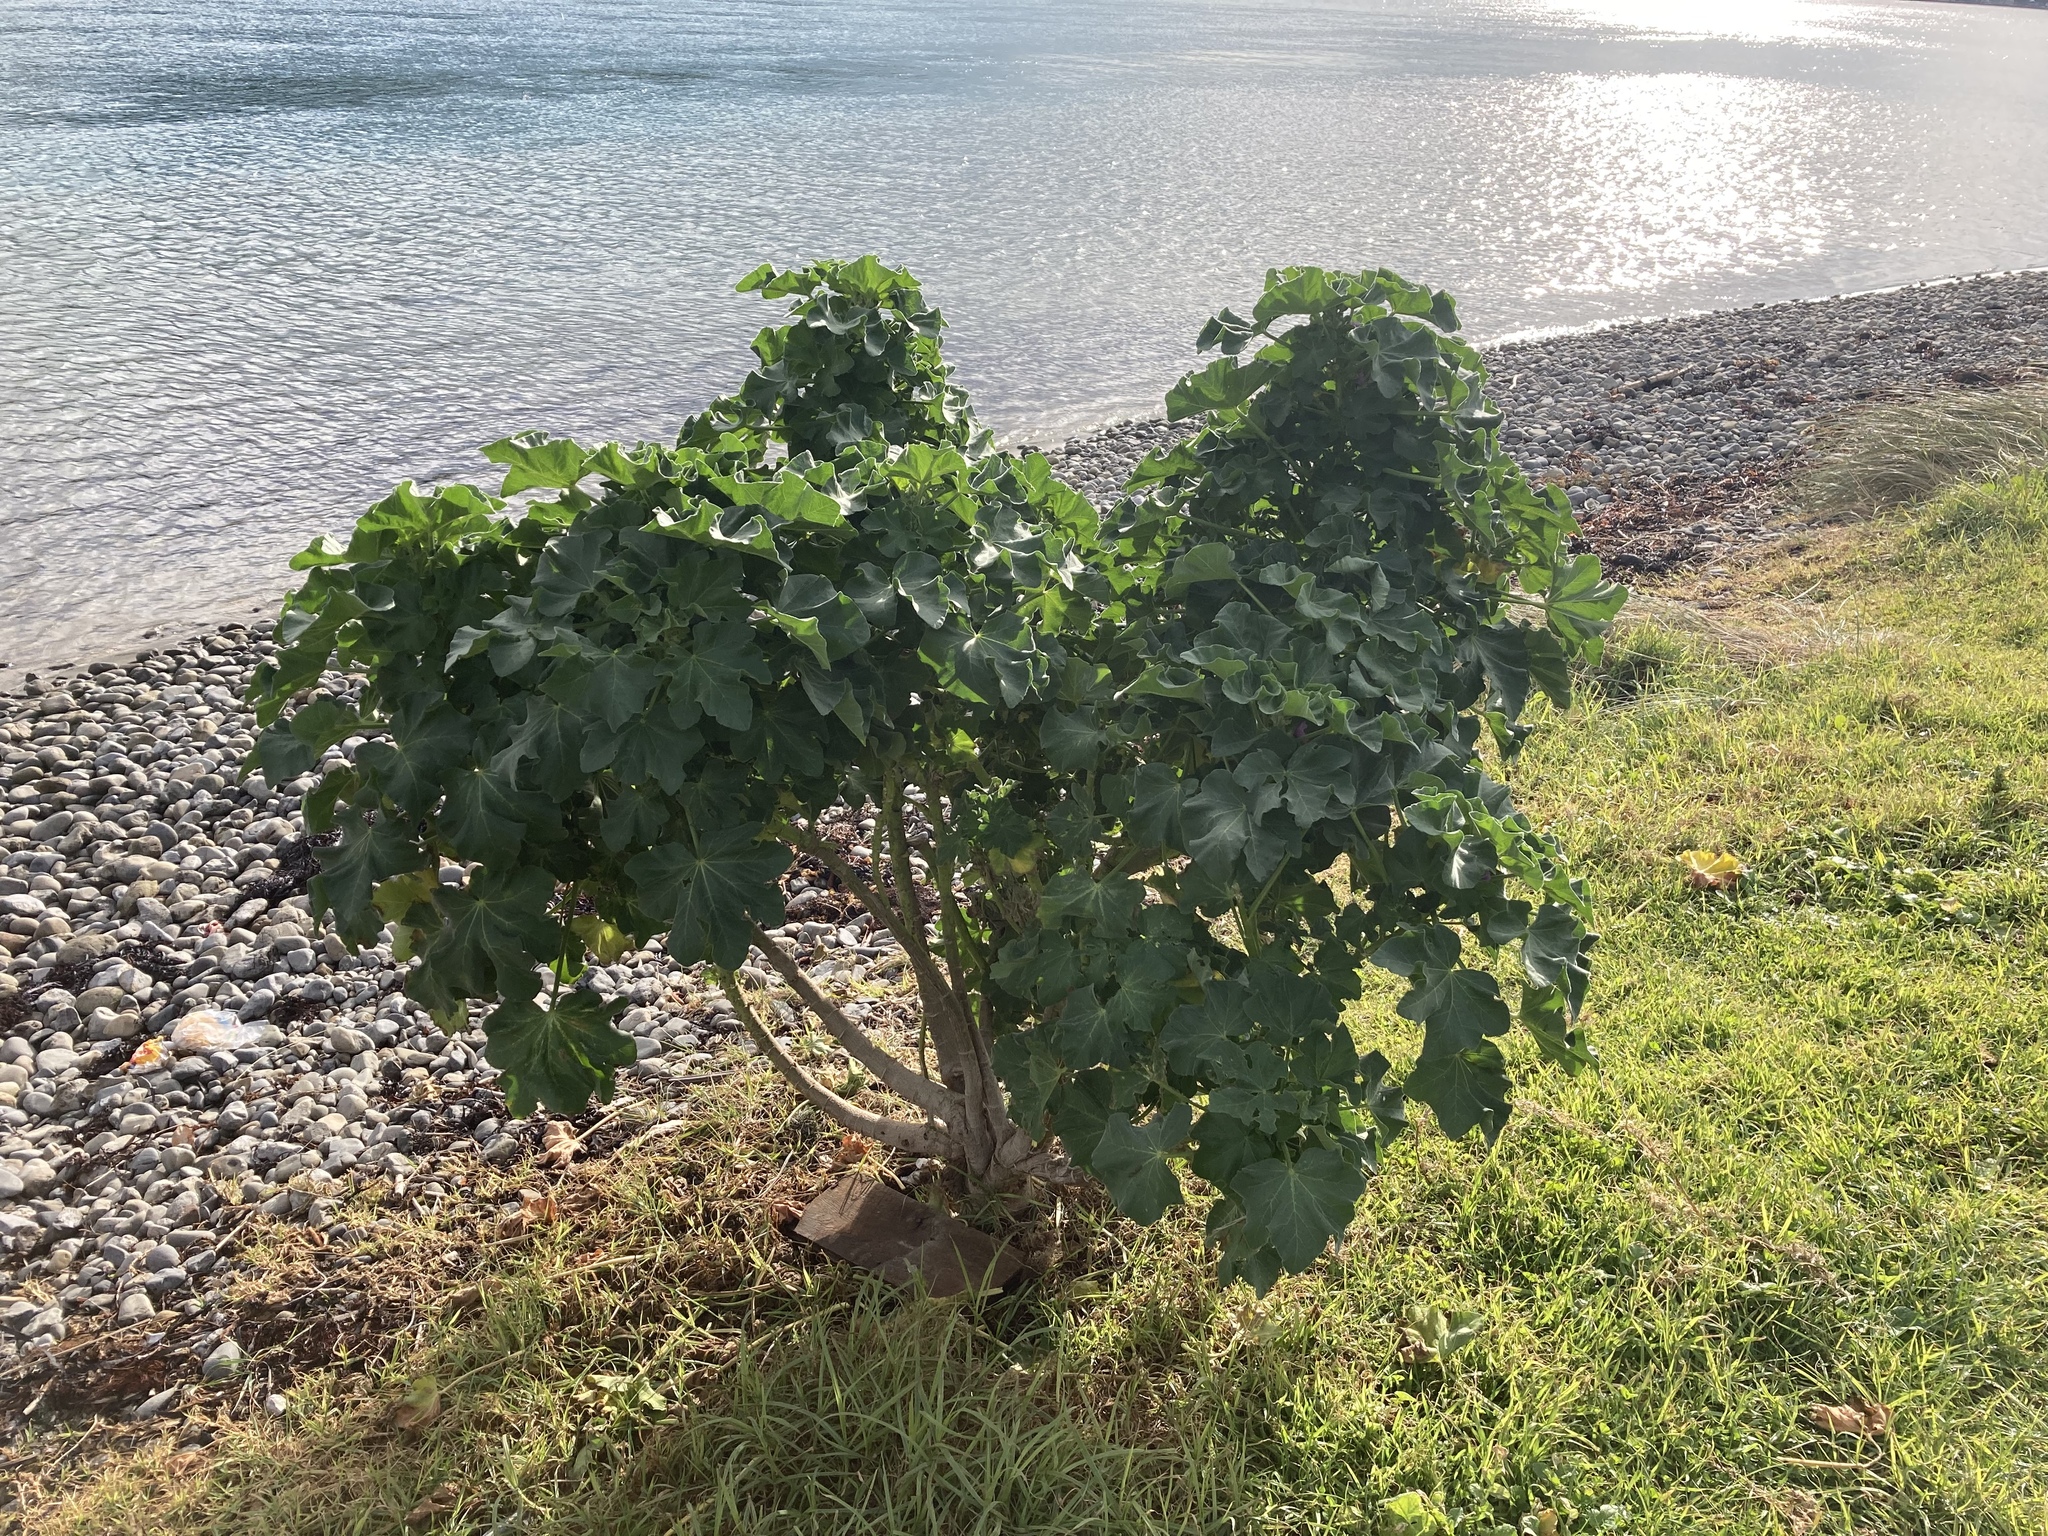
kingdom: Plantae
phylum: Tracheophyta
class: Magnoliopsida
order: Malvales
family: Malvaceae
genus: Malva
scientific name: Malva arborea
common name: Tree mallow
